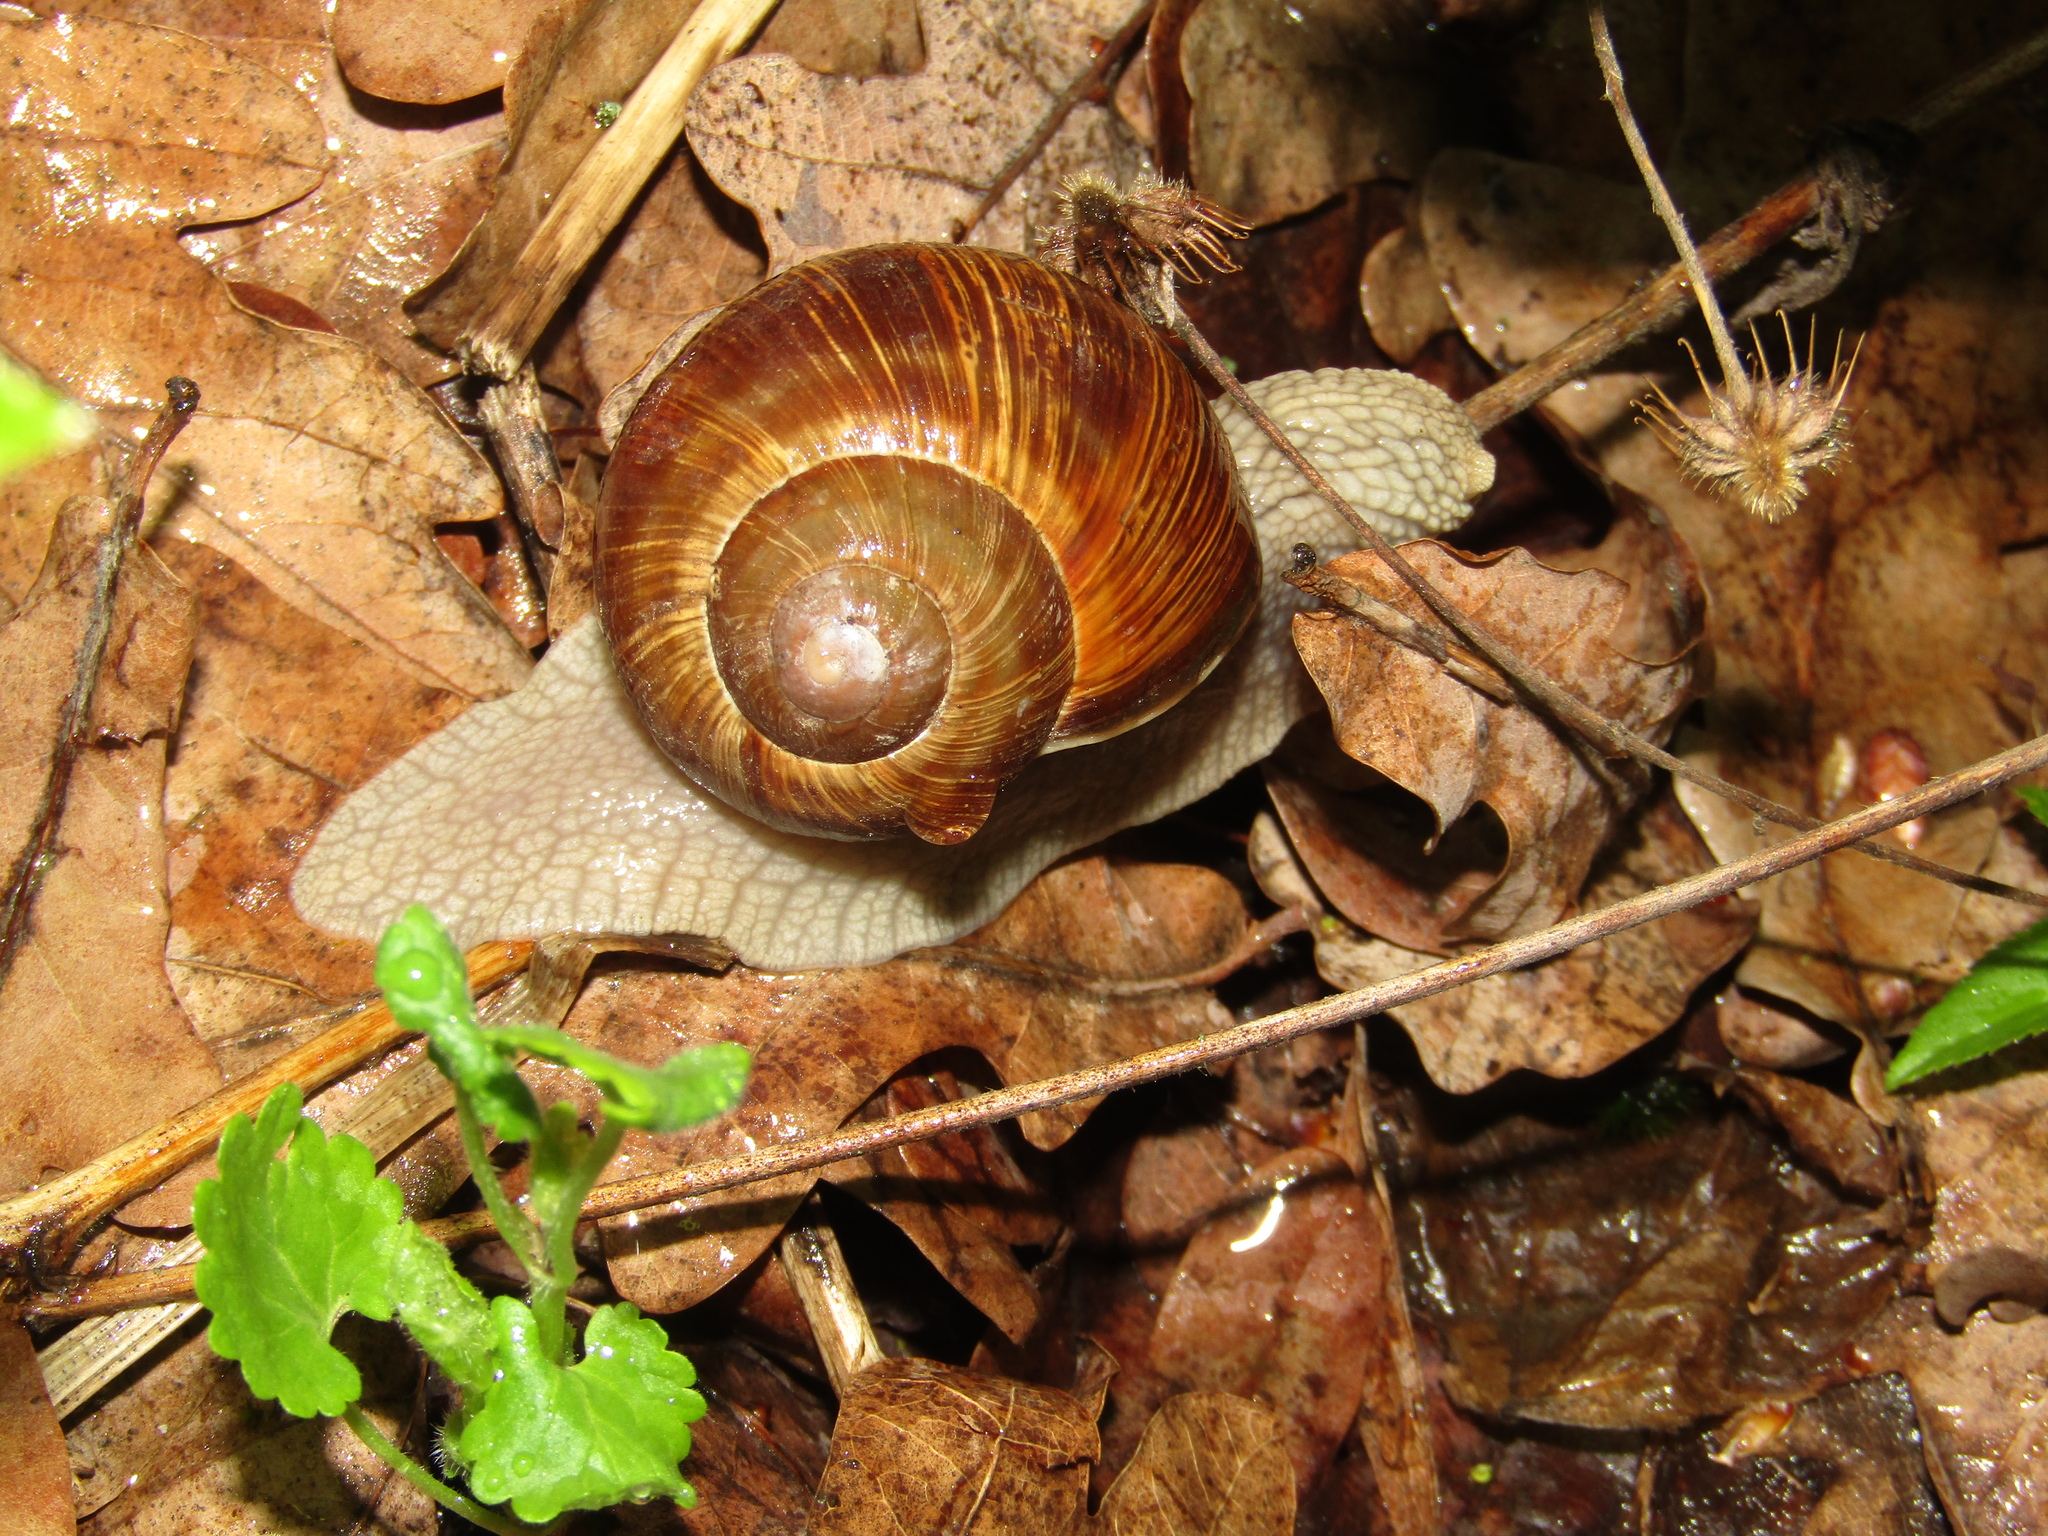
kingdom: Animalia
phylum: Mollusca
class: Gastropoda
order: Stylommatophora
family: Helicidae
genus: Helix
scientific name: Helix pomatia
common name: Roman snail
